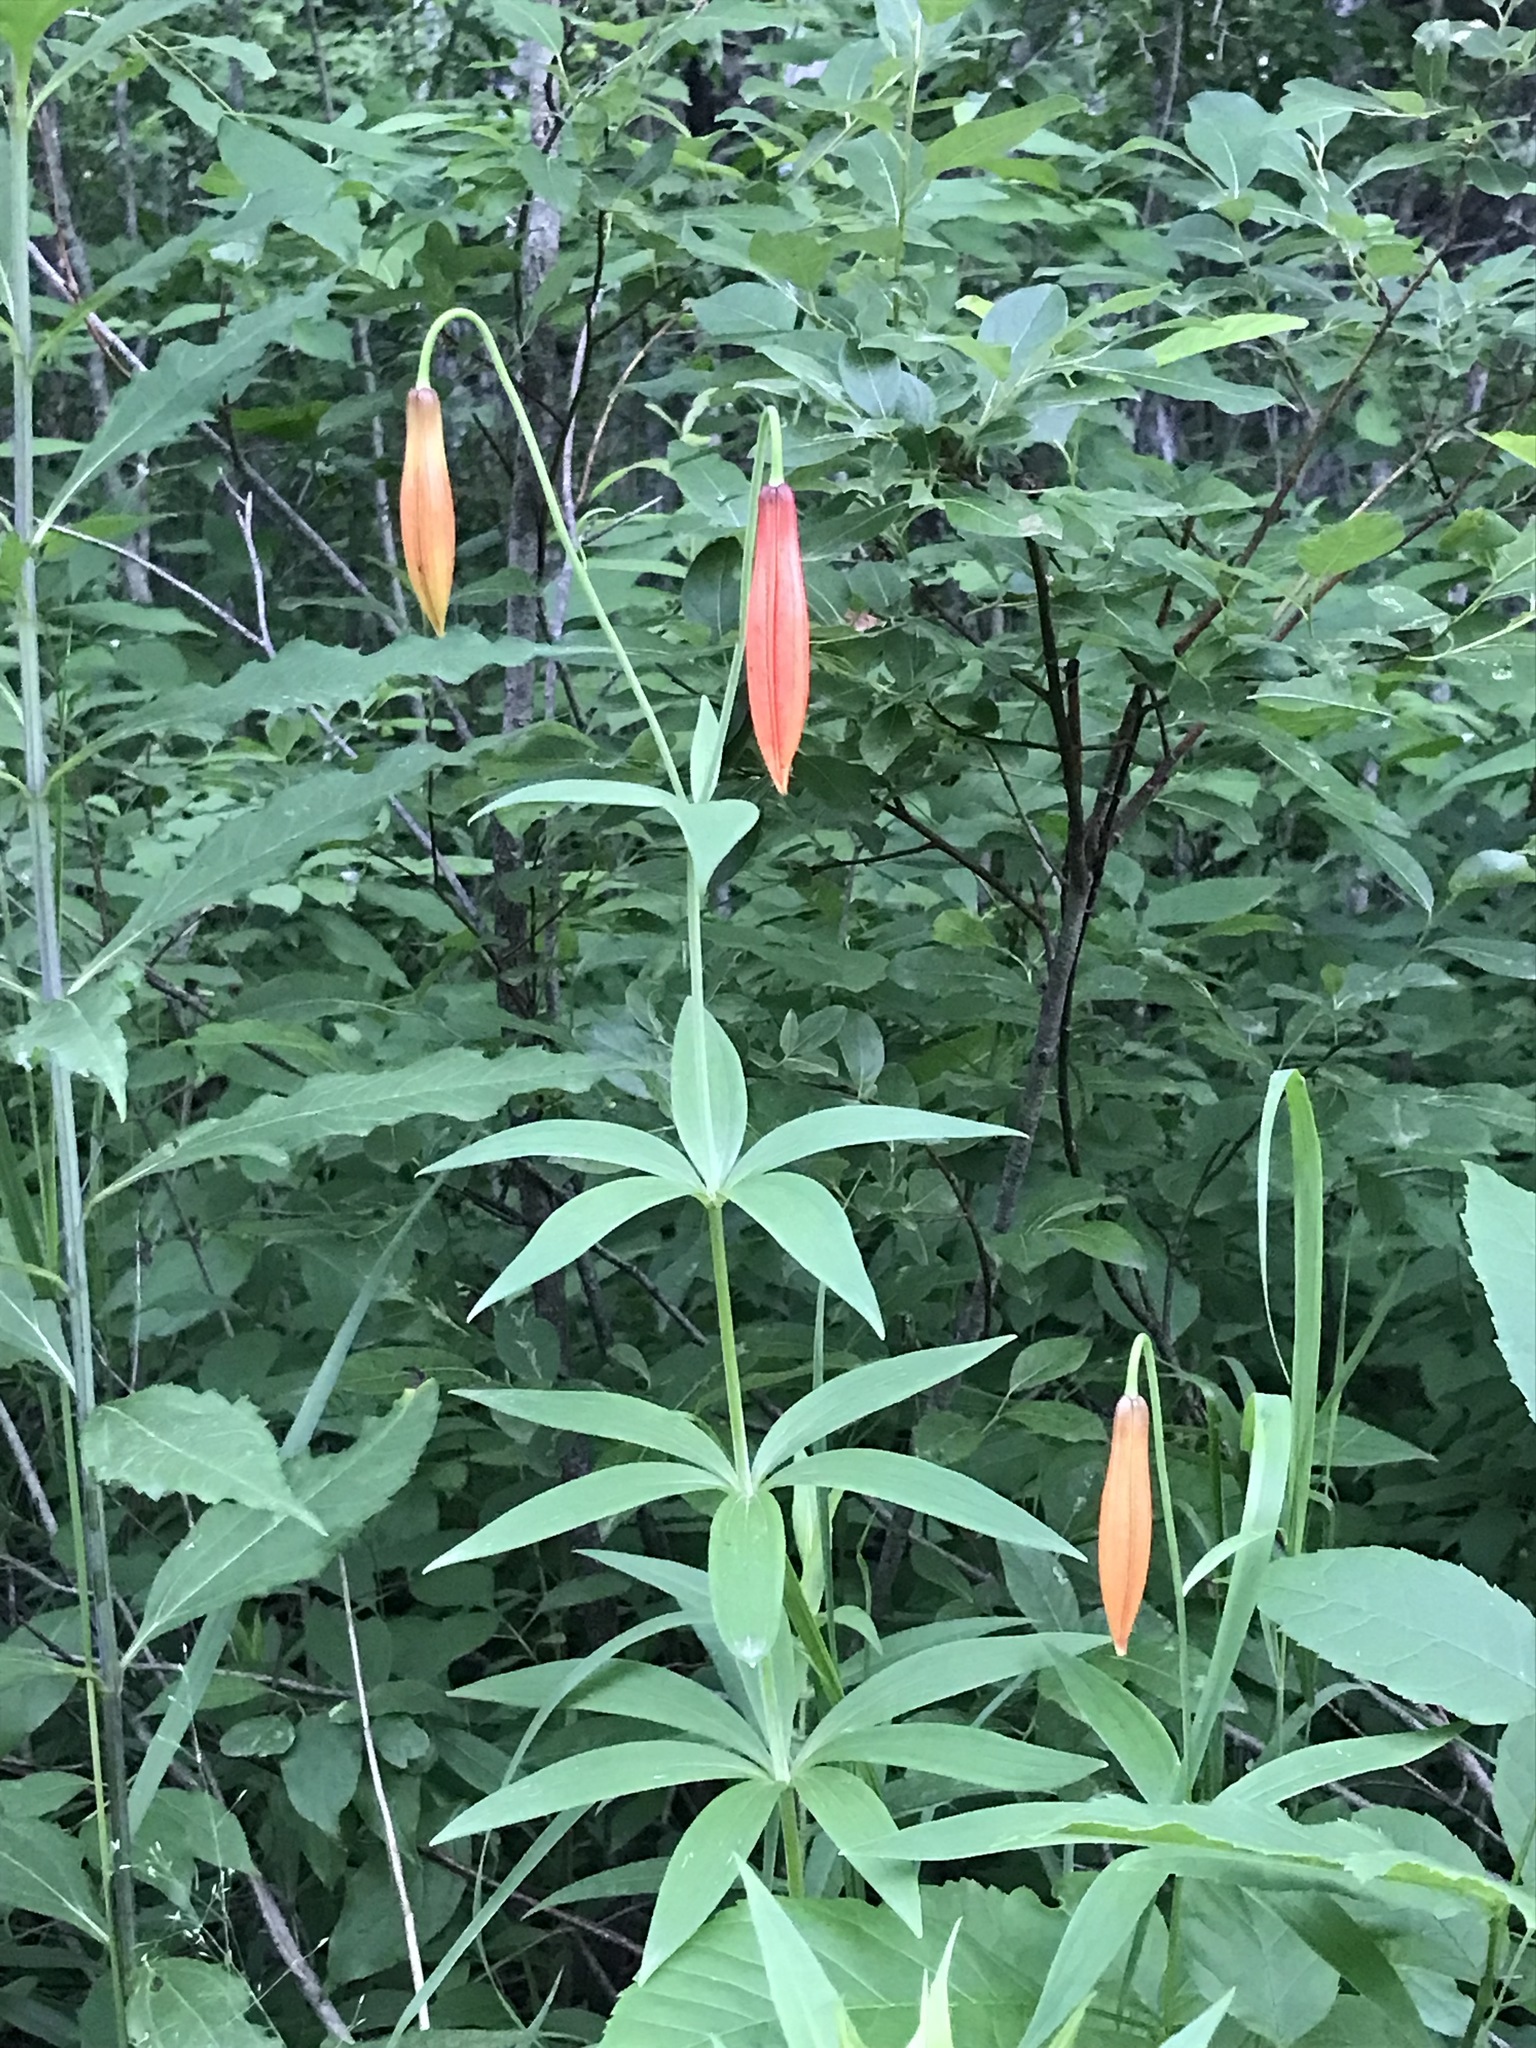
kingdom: Plantae
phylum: Tracheophyta
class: Liliopsida
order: Liliales
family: Liliaceae
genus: Lilium
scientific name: Lilium michiganense
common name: Michigan lily
